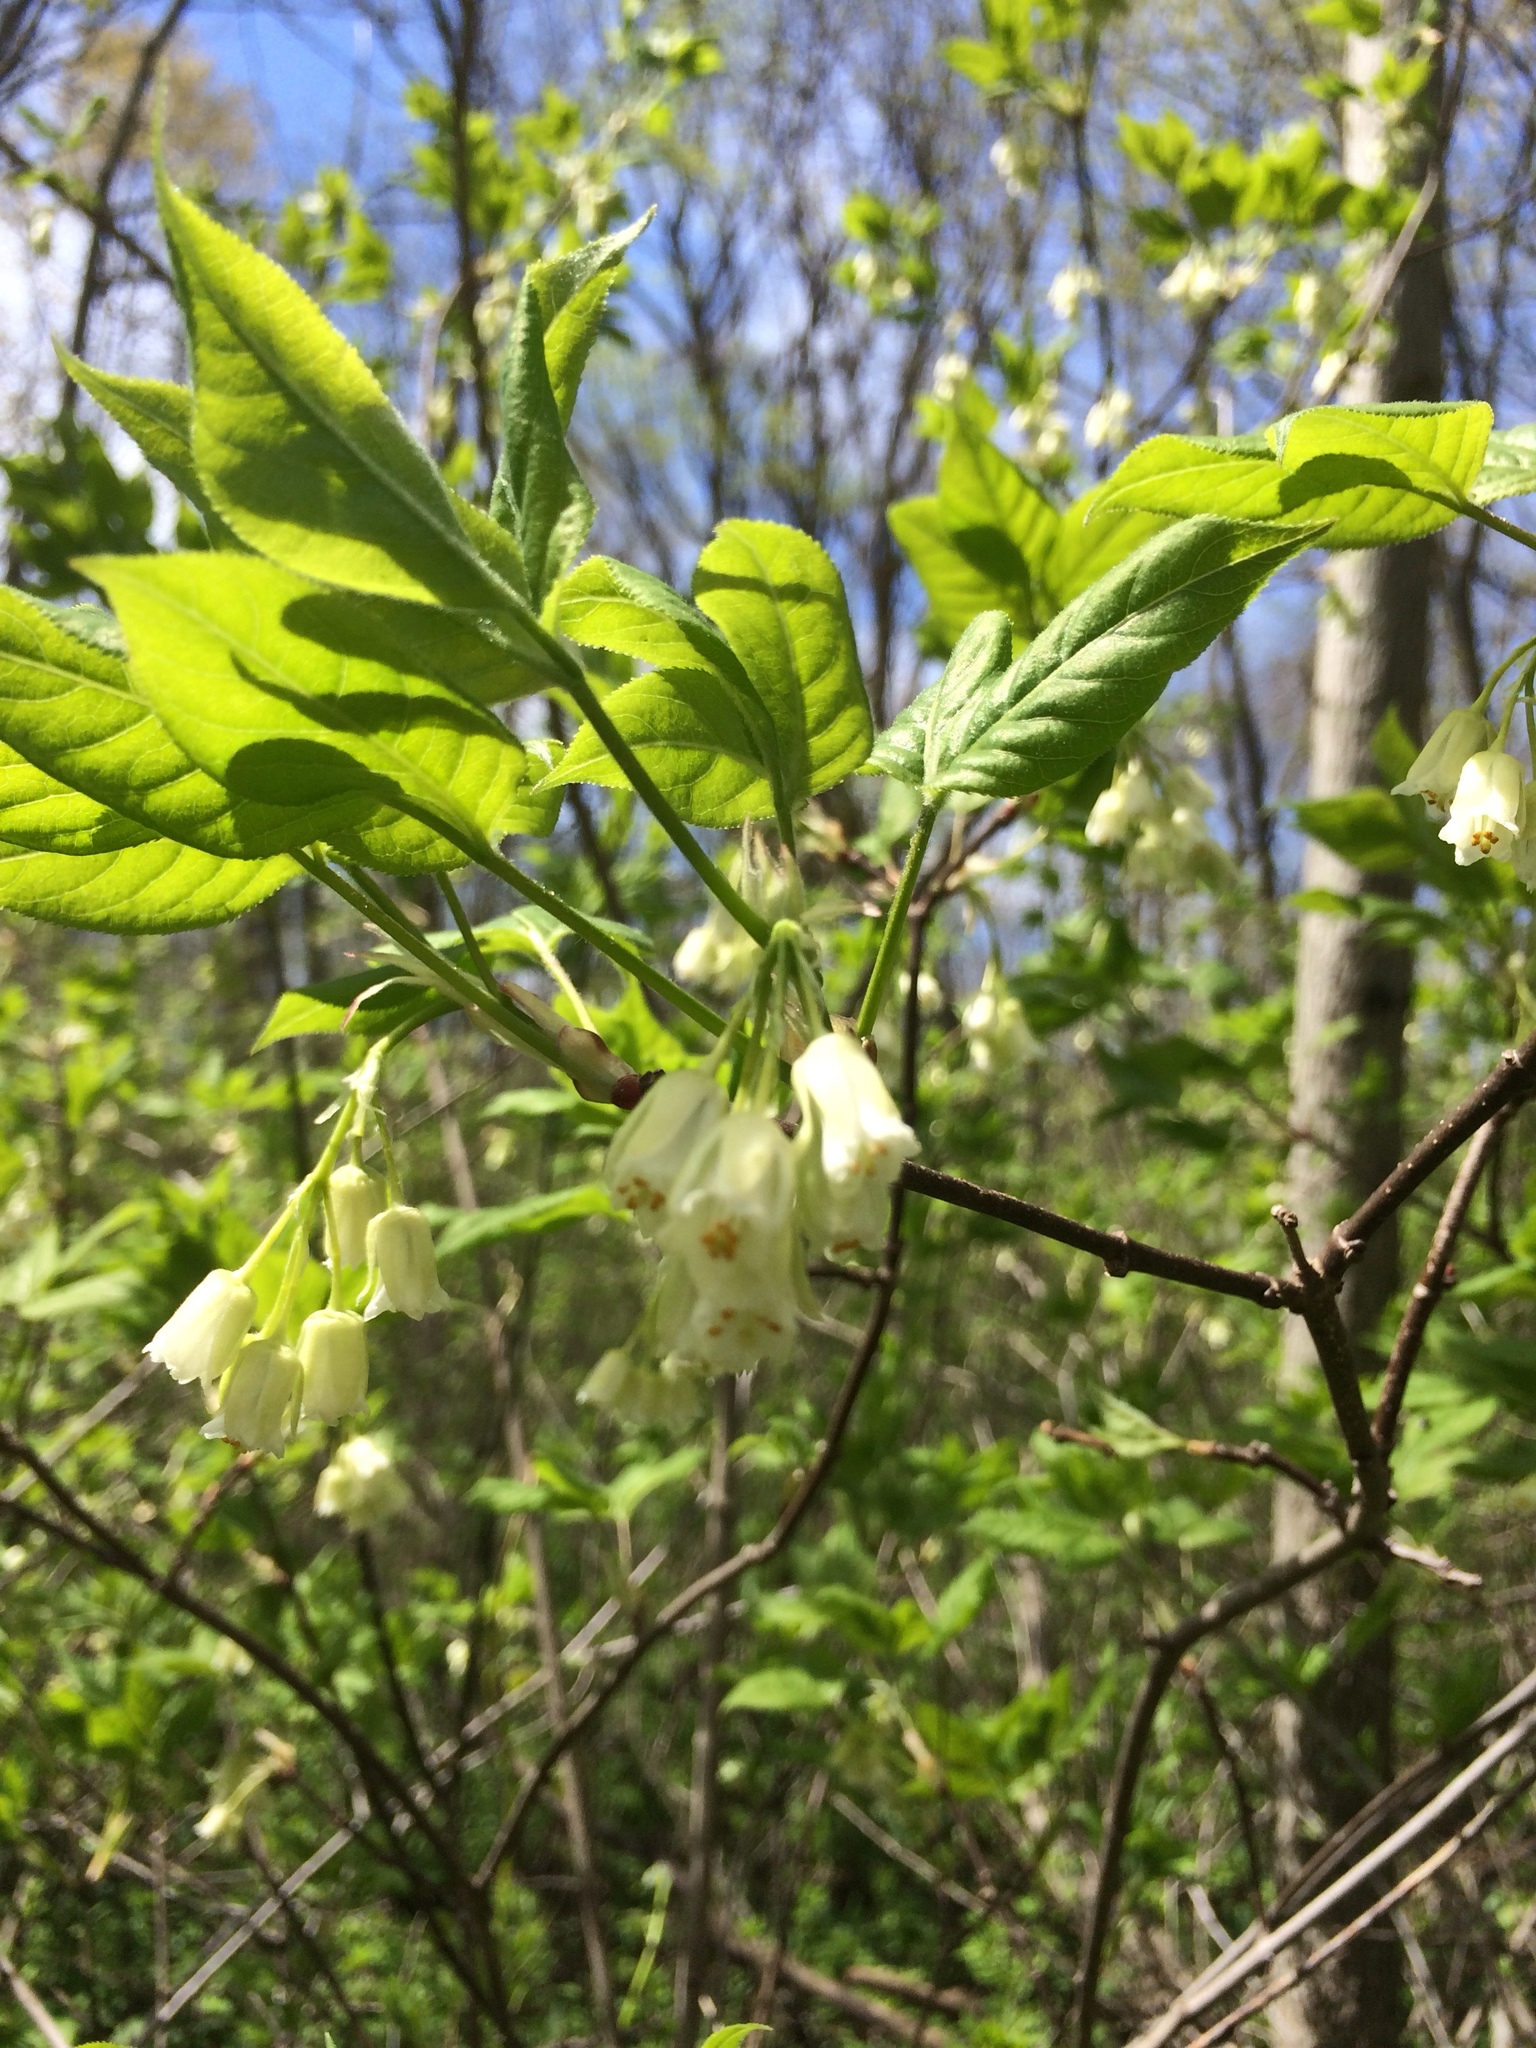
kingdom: Plantae
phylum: Tracheophyta
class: Magnoliopsida
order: Crossosomatales
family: Staphyleaceae
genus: Staphylea
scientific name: Staphylea trifolia
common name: American bladdernut
